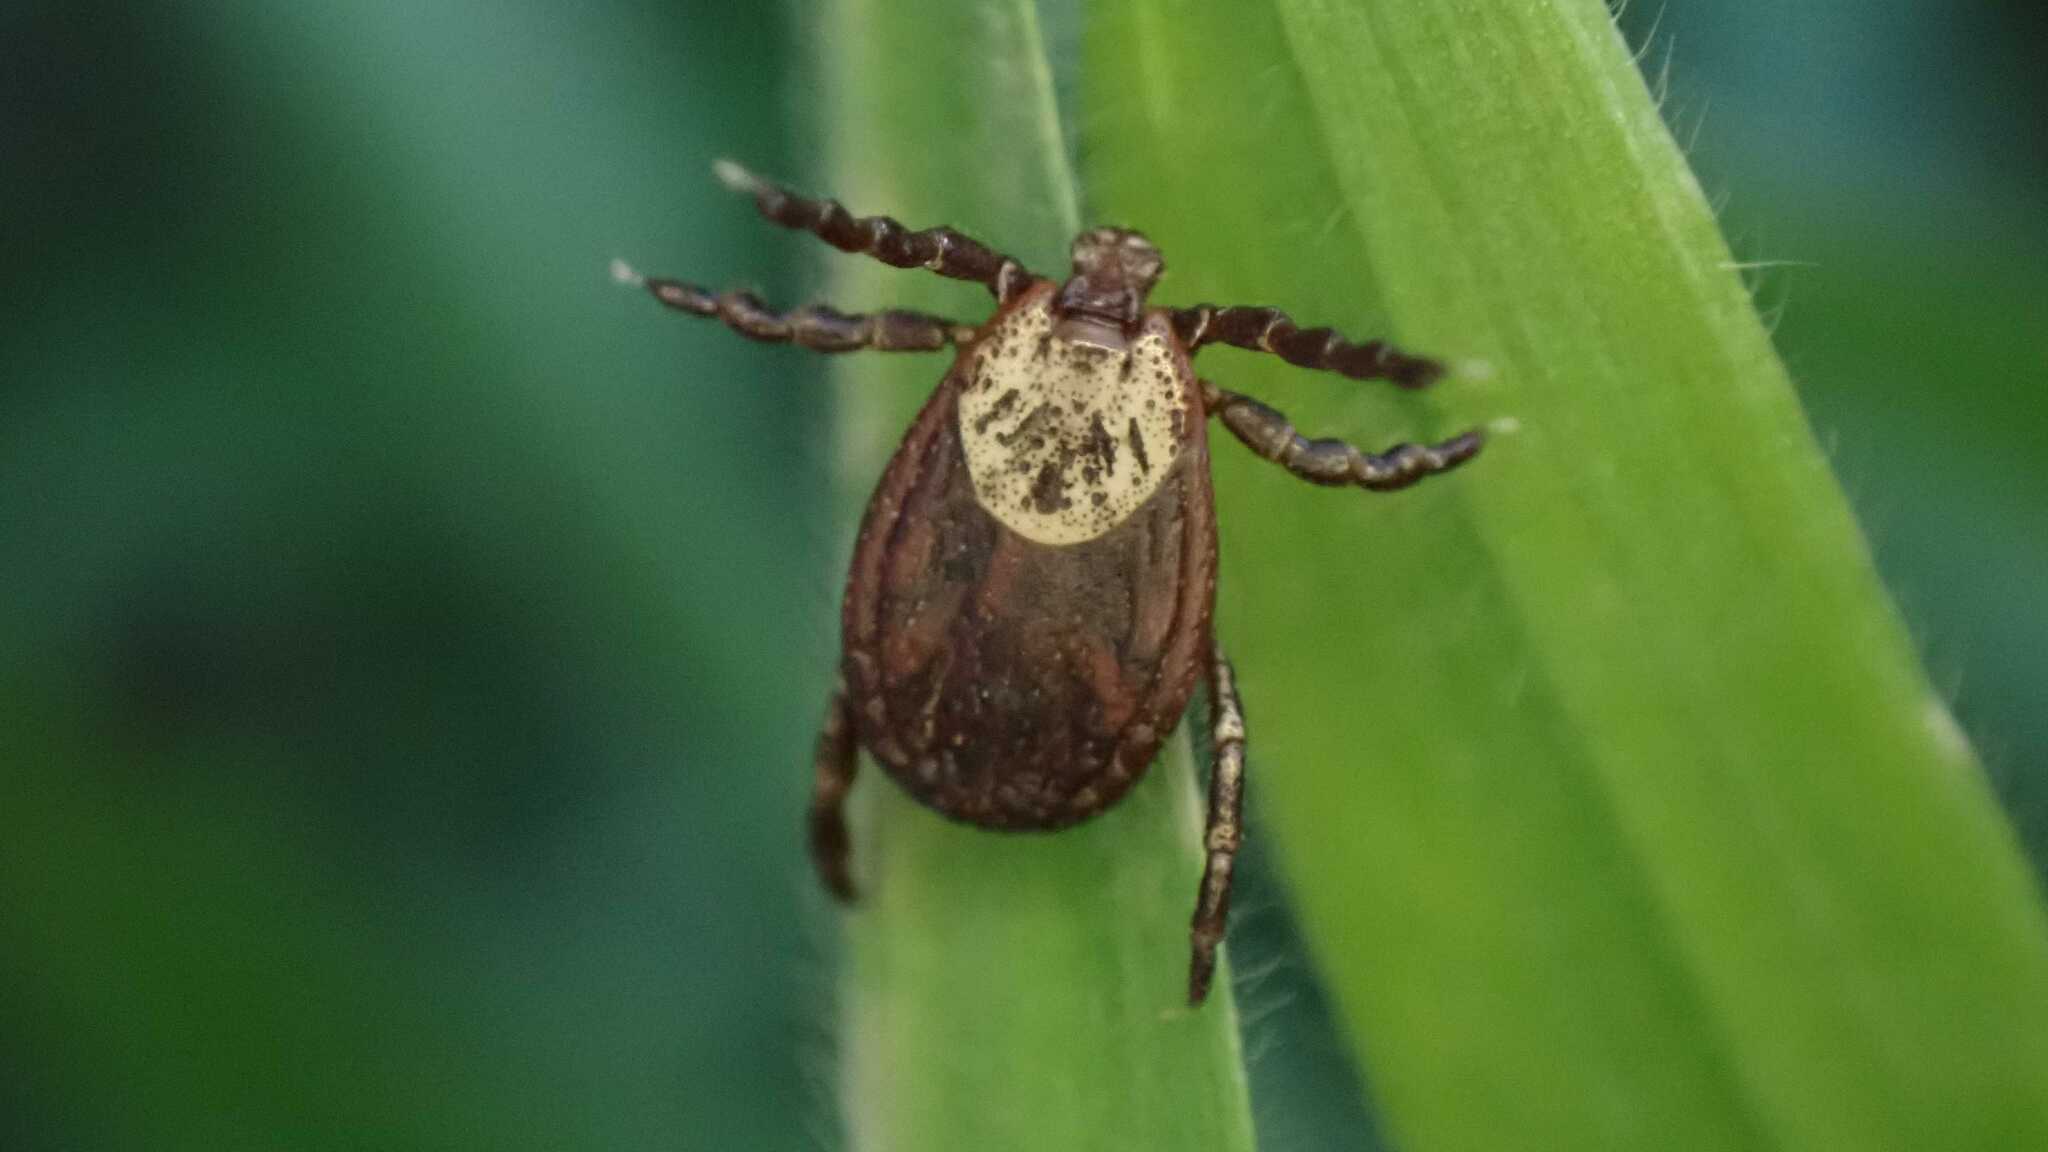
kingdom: Animalia
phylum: Arthropoda
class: Arachnida
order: Ixodida
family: Ixodidae
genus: Dermacentor
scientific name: Dermacentor reticulatus
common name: Ornate cow tick
